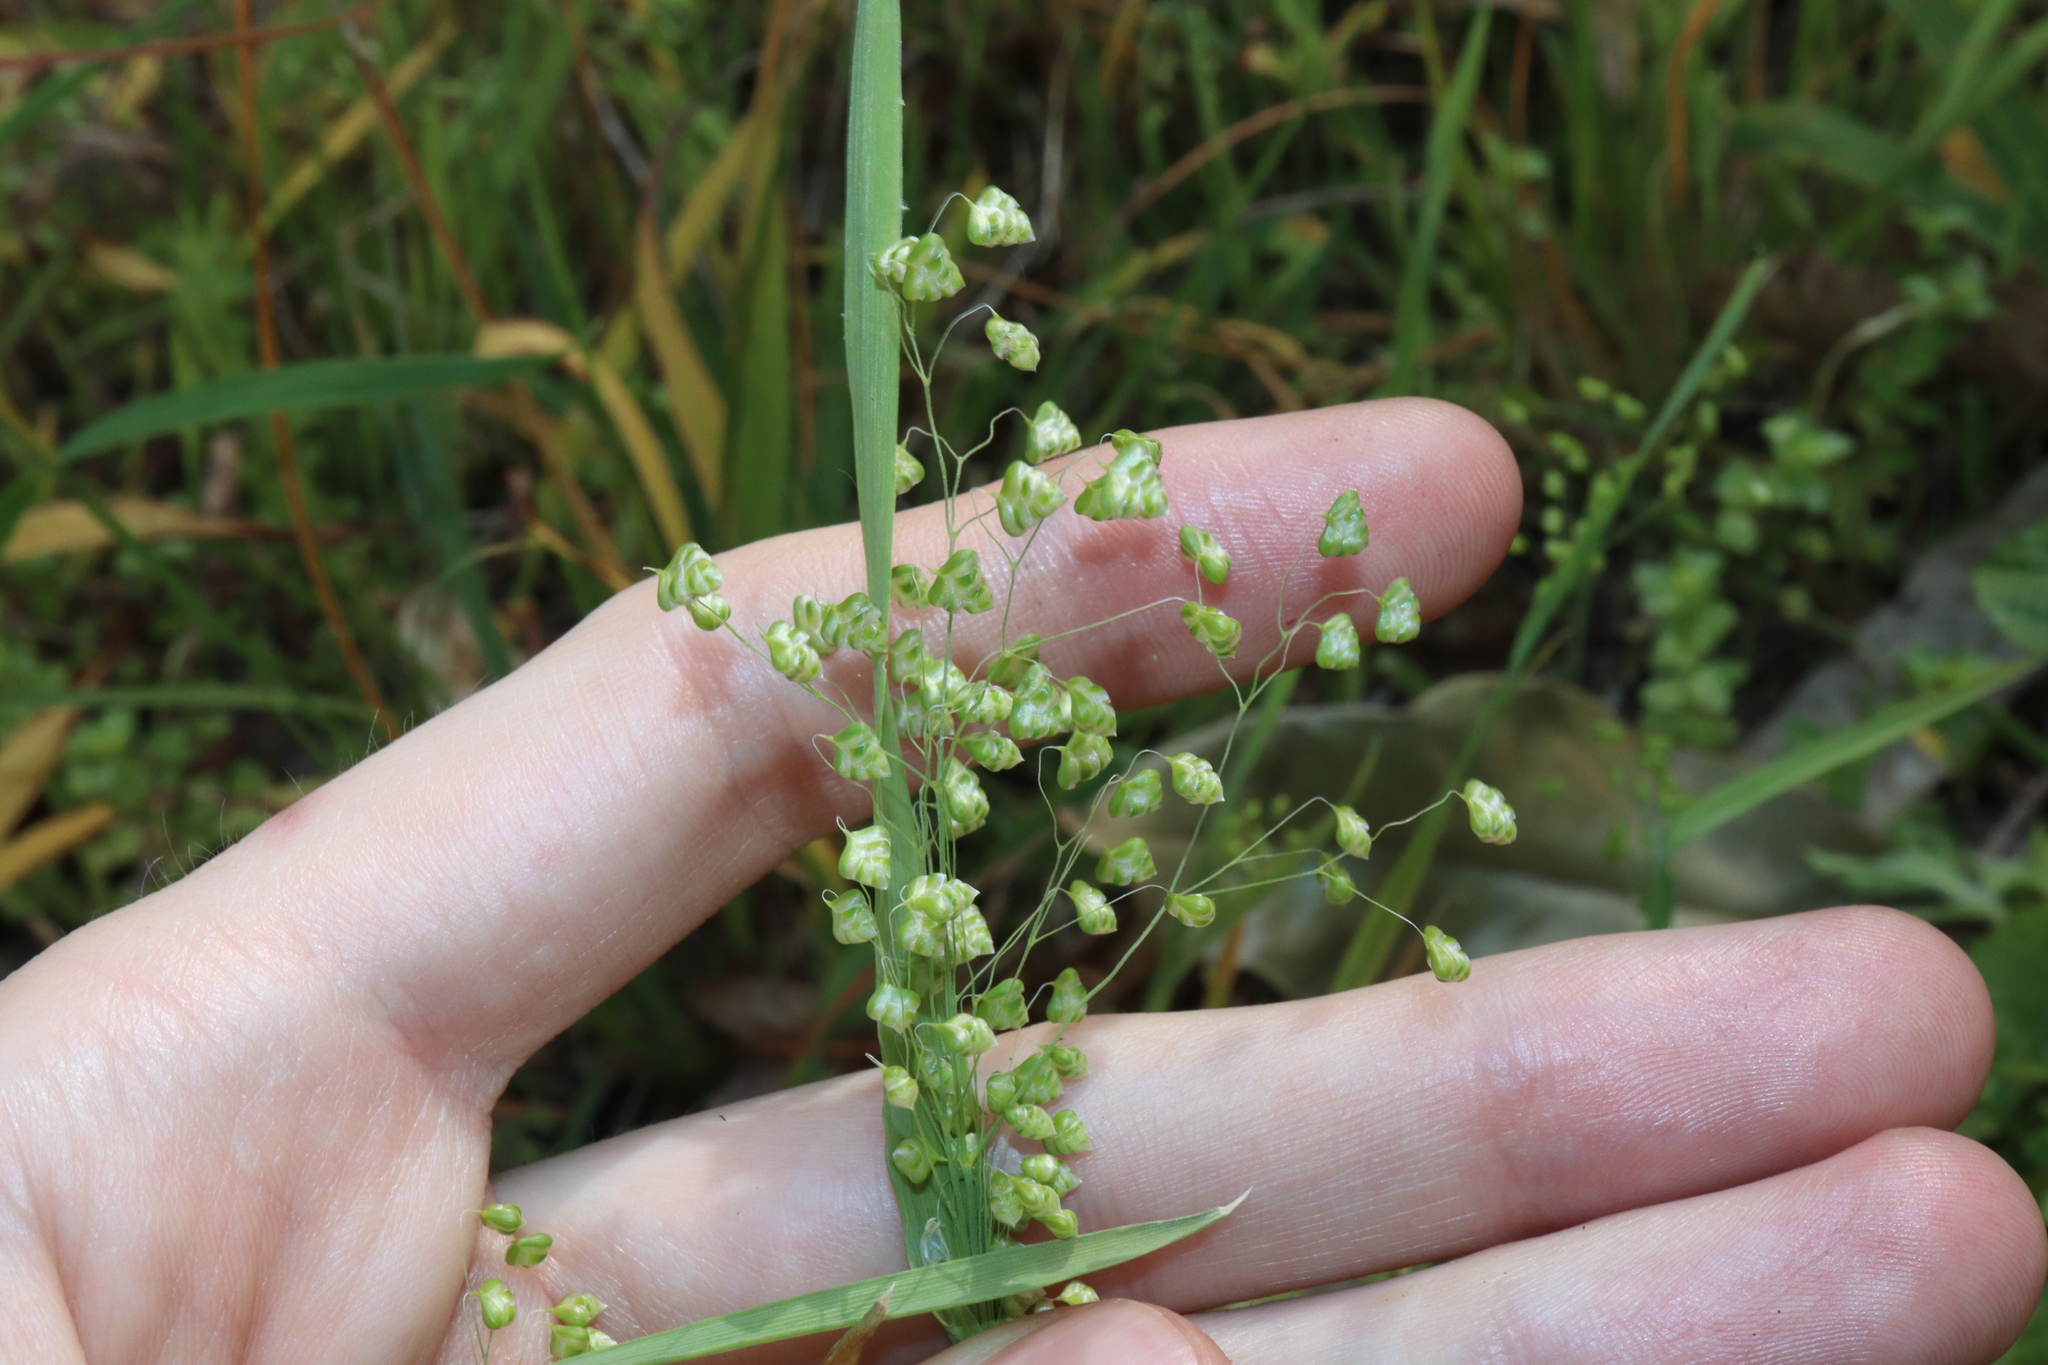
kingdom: Plantae
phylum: Tracheophyta
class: Liliopsida
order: Poales
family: Poaceae
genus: Briza
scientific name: Briza minor
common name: Lesser quaking-grass
